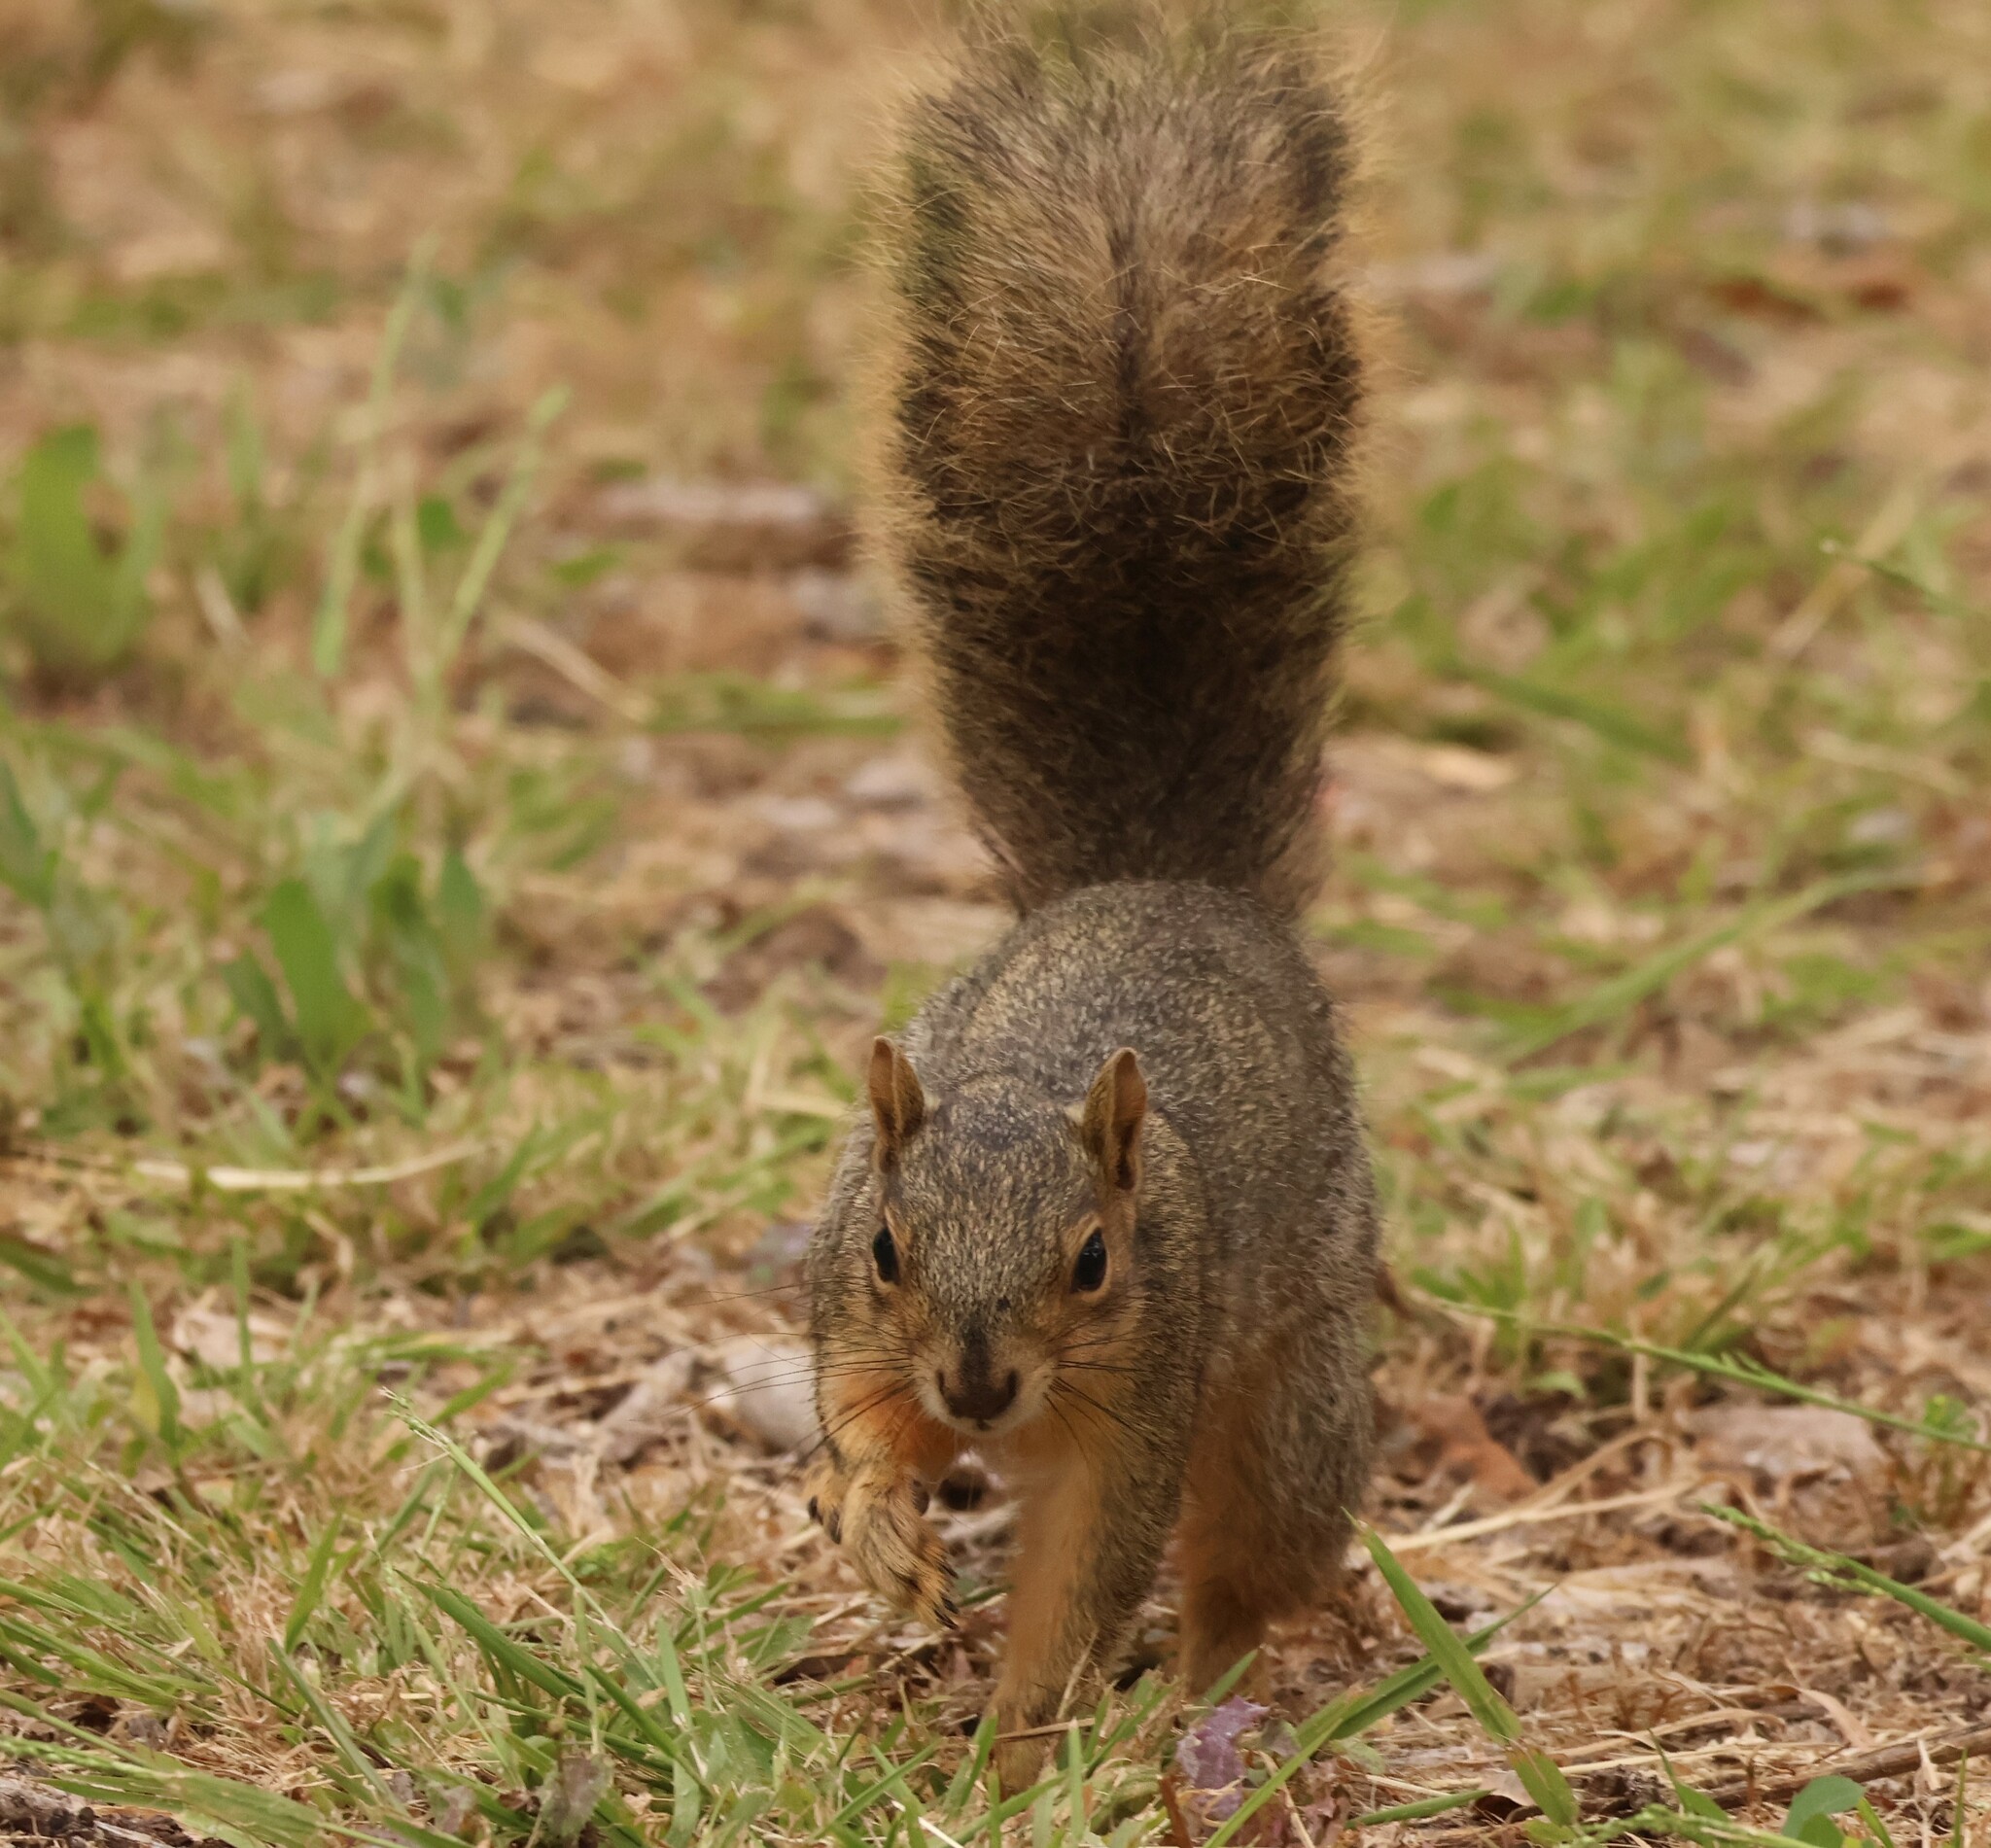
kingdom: Animalia
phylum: Chordata
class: Mammalia
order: Rodentia
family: Sciuridae
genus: Sciurus
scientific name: Sciurus niger
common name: Fox squirrel
